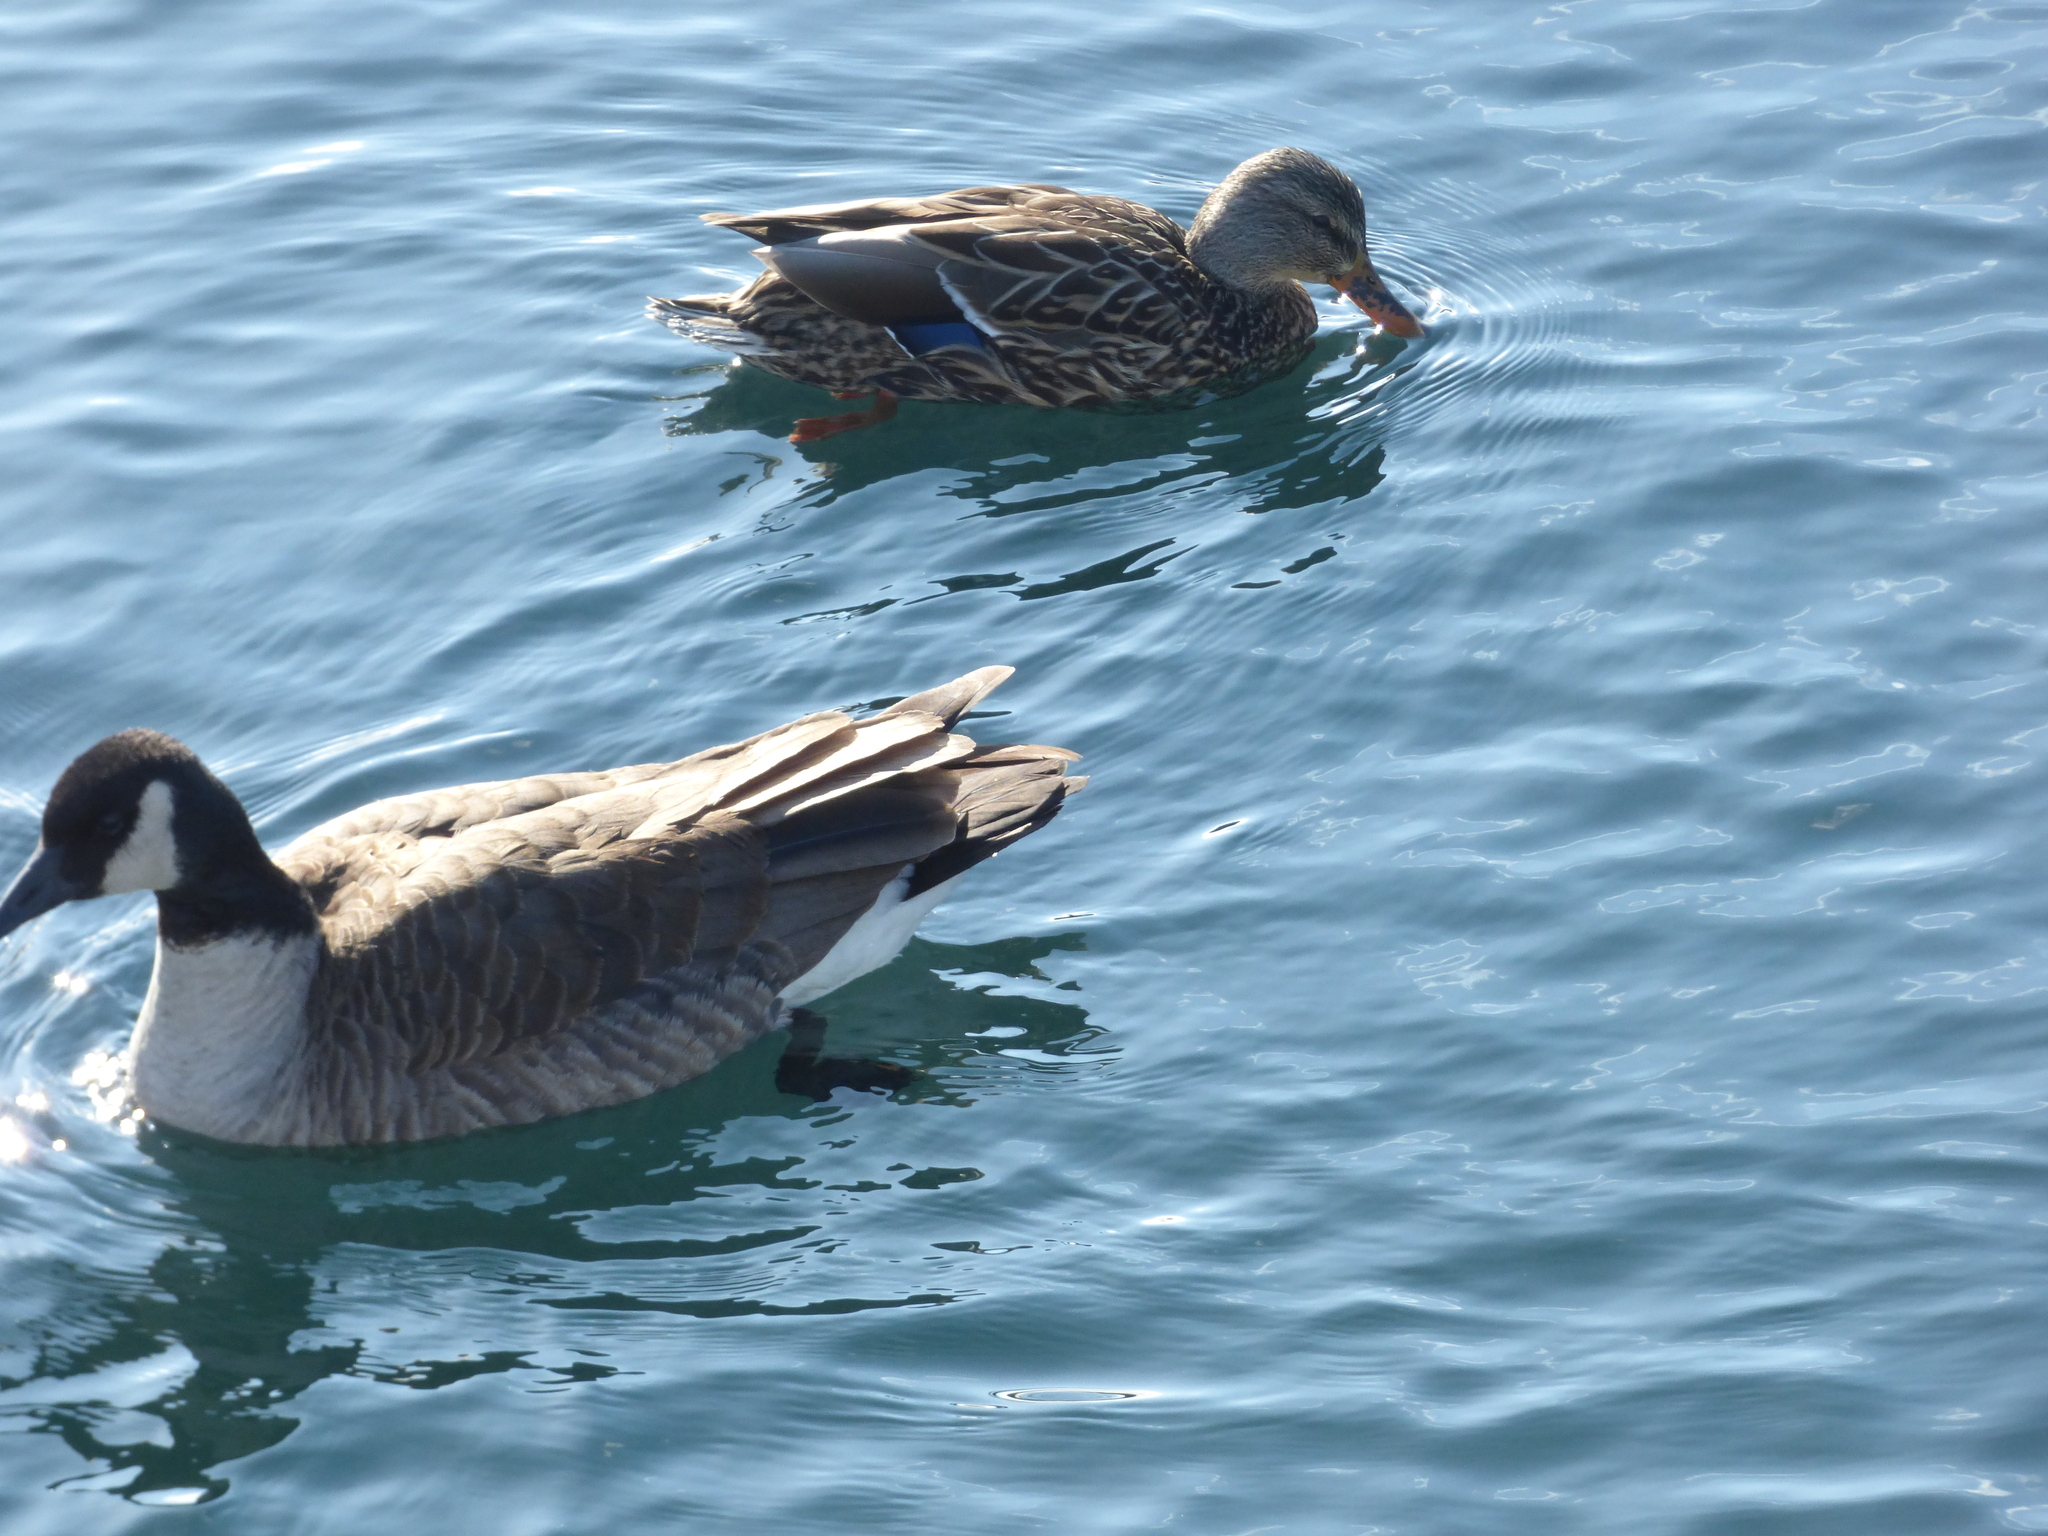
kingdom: Animalia
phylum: Chordata
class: Aves
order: Anseriformes
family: Anatidae
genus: Branta
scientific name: Branta canadensis
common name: Canada goose
